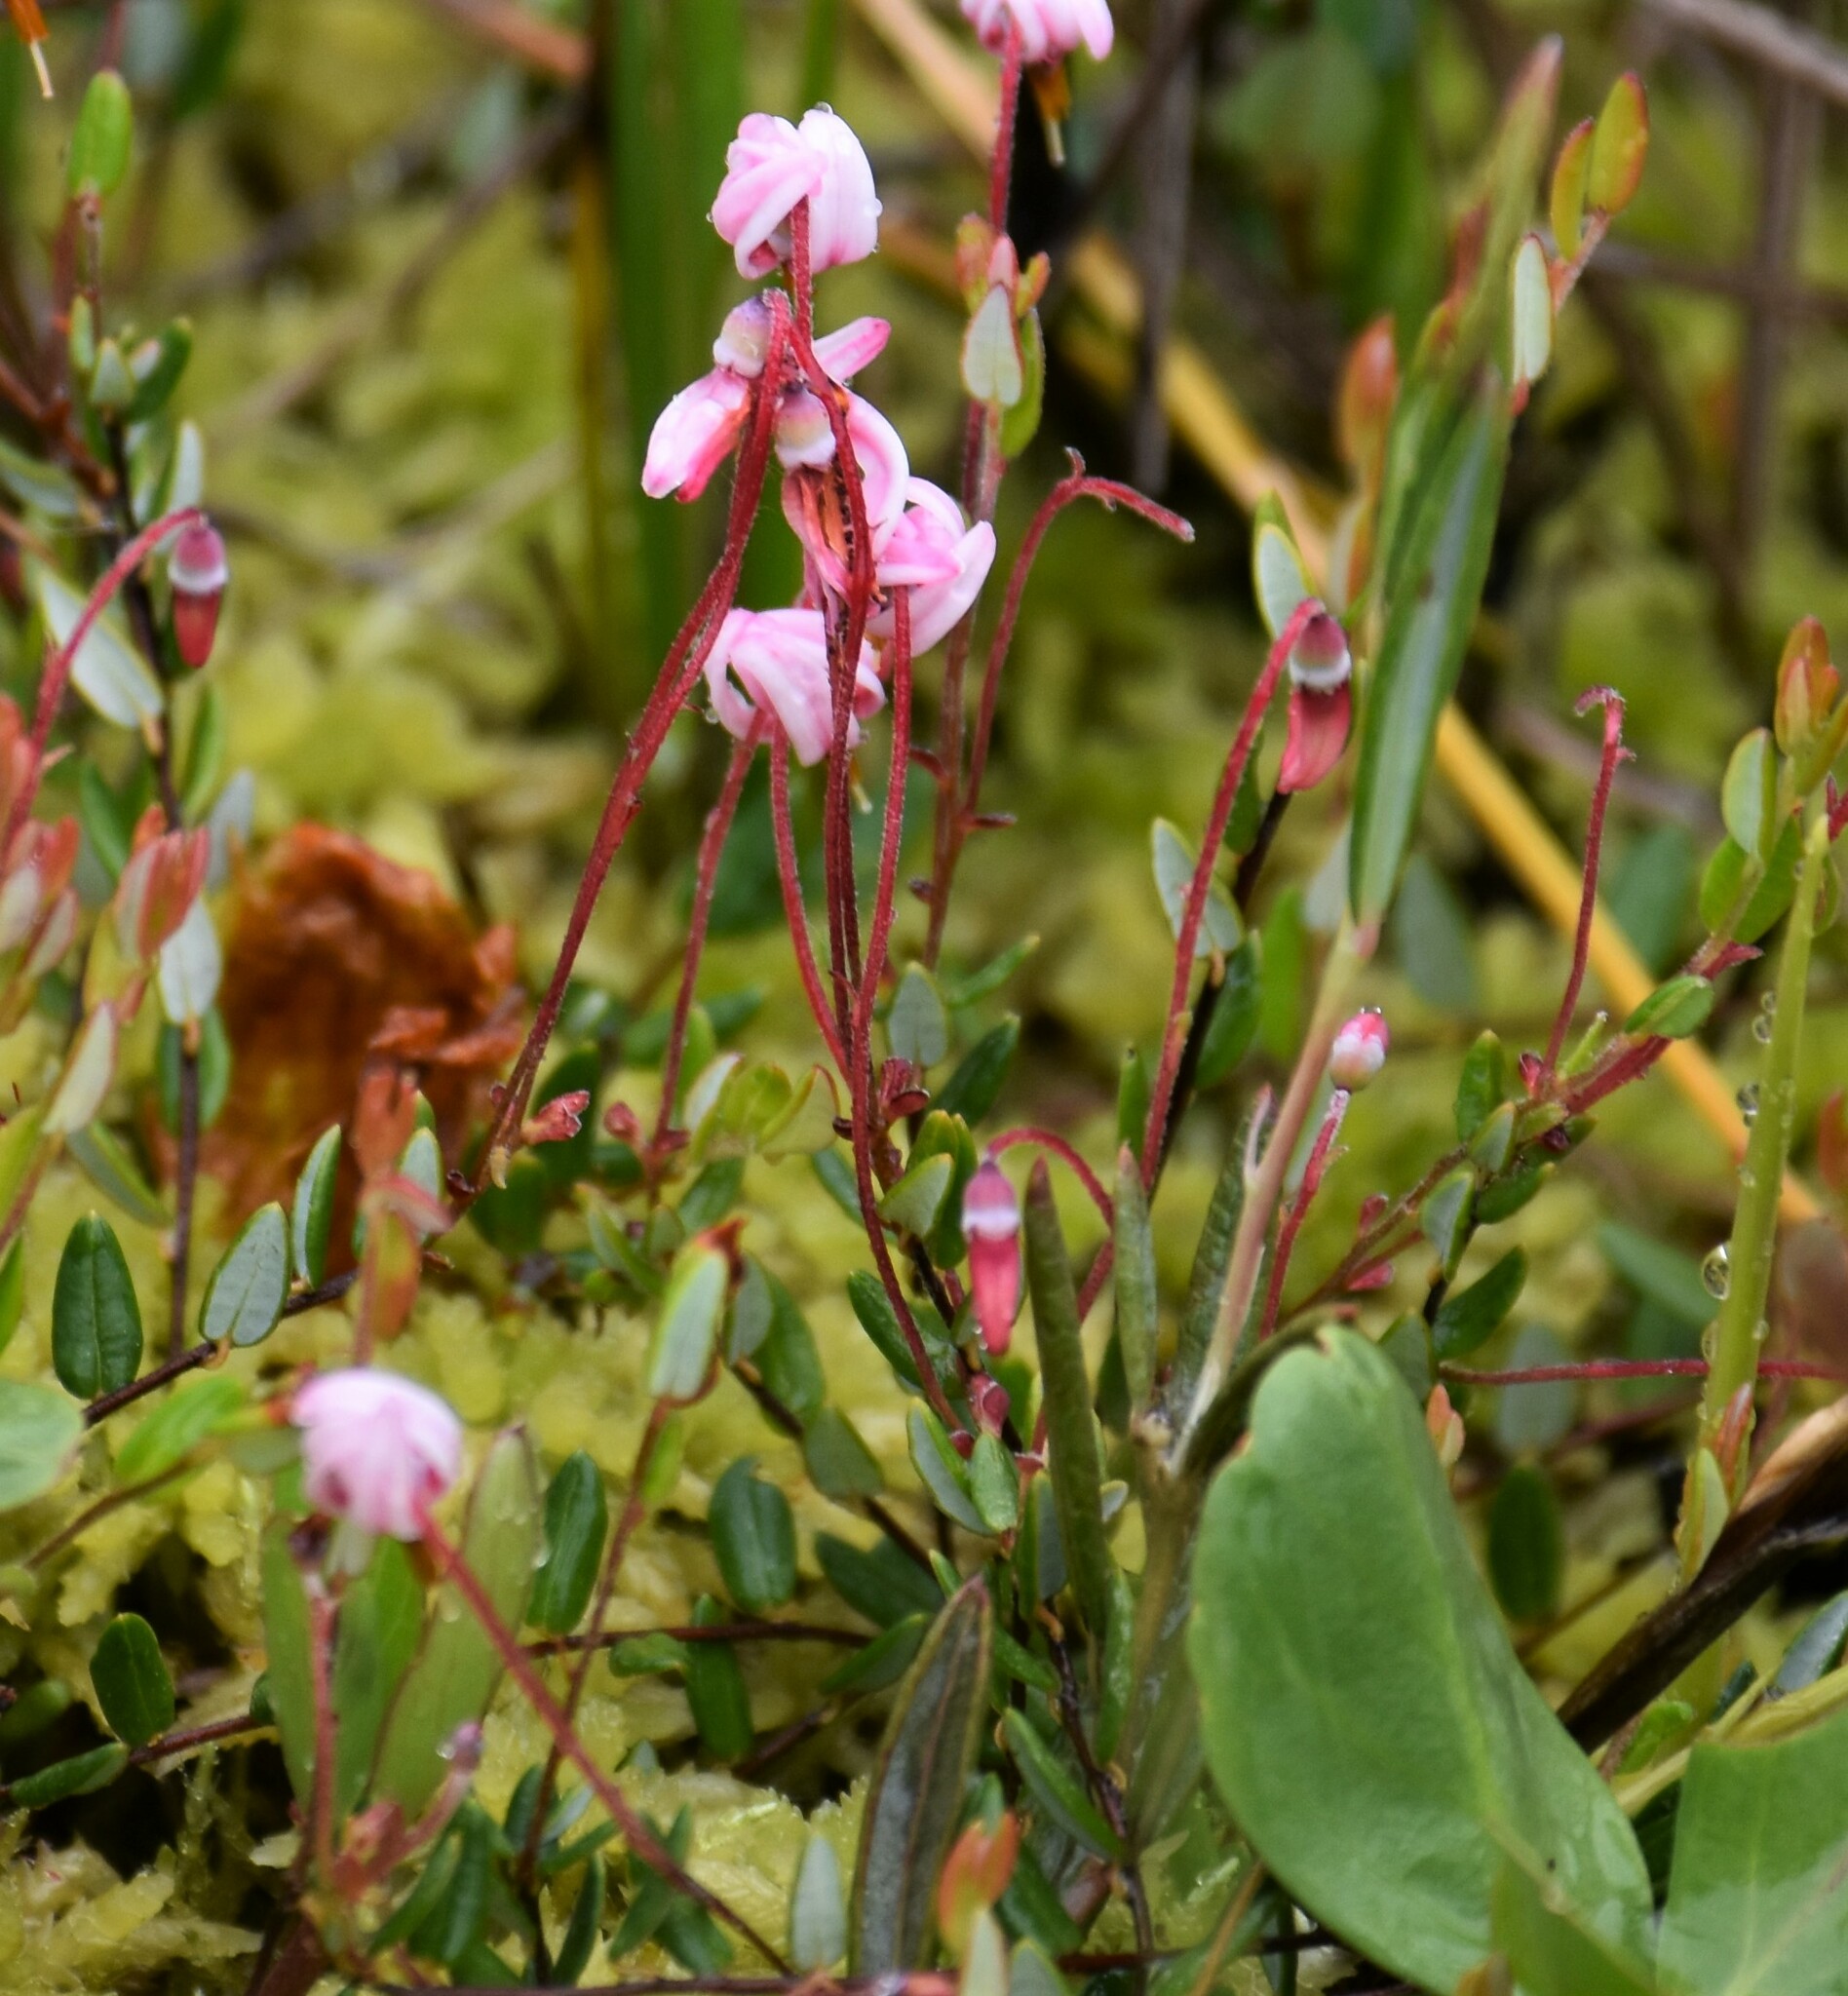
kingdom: Plantae
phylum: Tracheophyta
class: Magnoliopsida
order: Ericales
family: Ericaceae
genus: Vaccinium
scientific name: Vaccinium oxycoccos
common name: Cranberry
